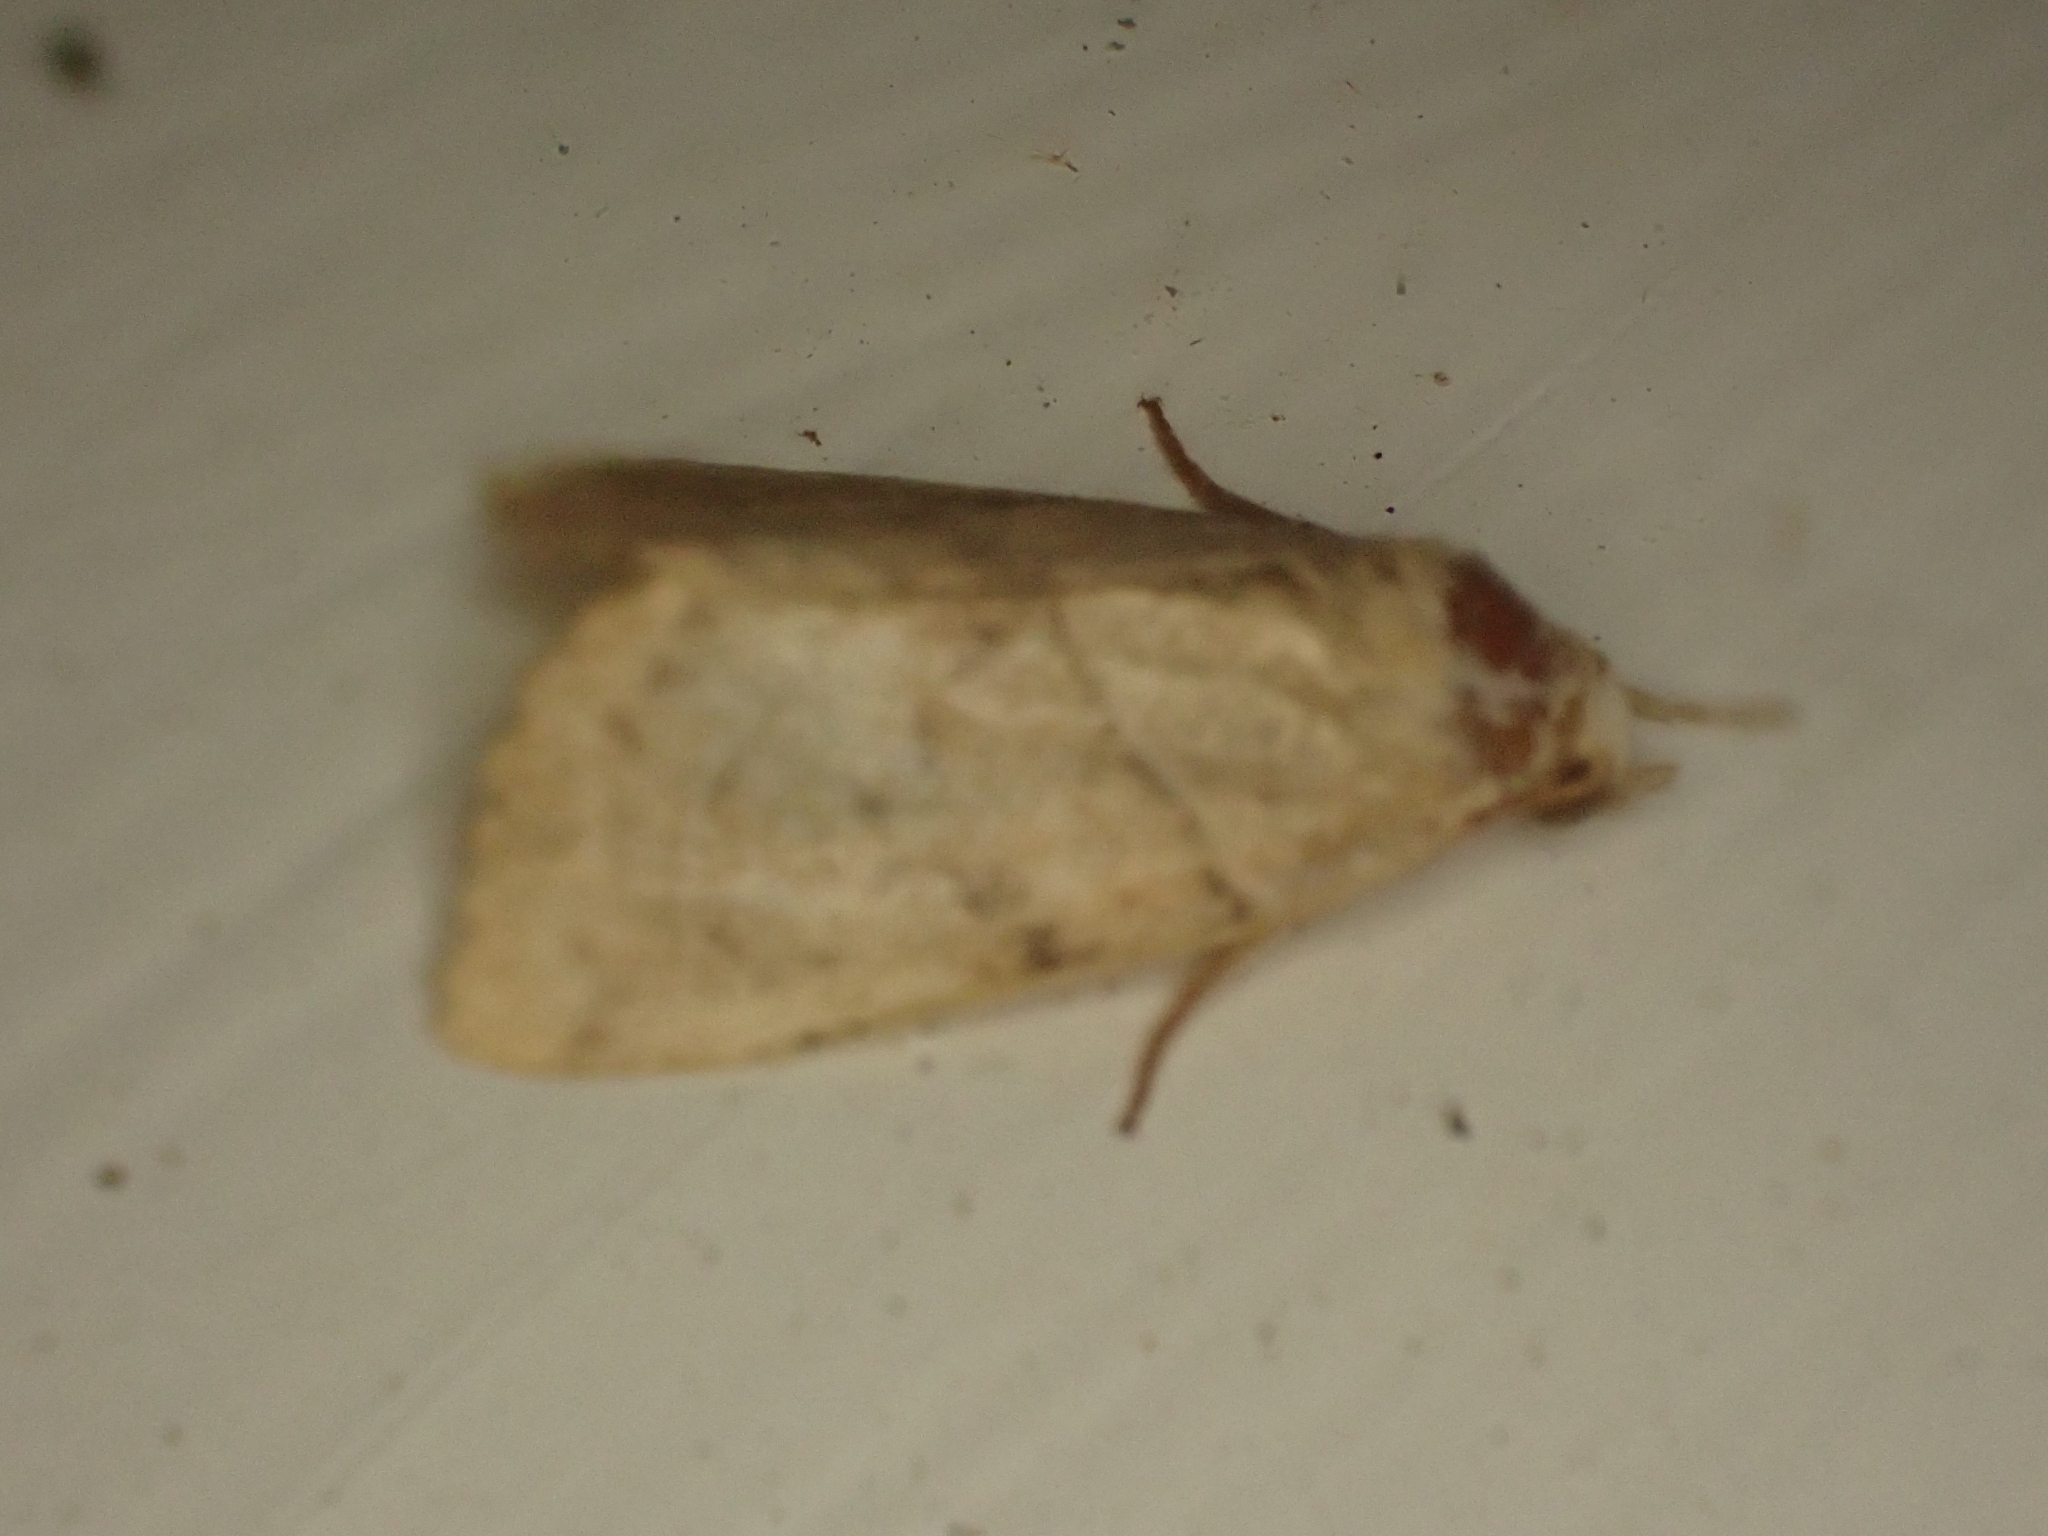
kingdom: Animalia
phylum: Arthropoda
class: Insecta
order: Lepidoptera
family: Noctuidae
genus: Cosmia
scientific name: Cosmia trapezina
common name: Dun-bar
